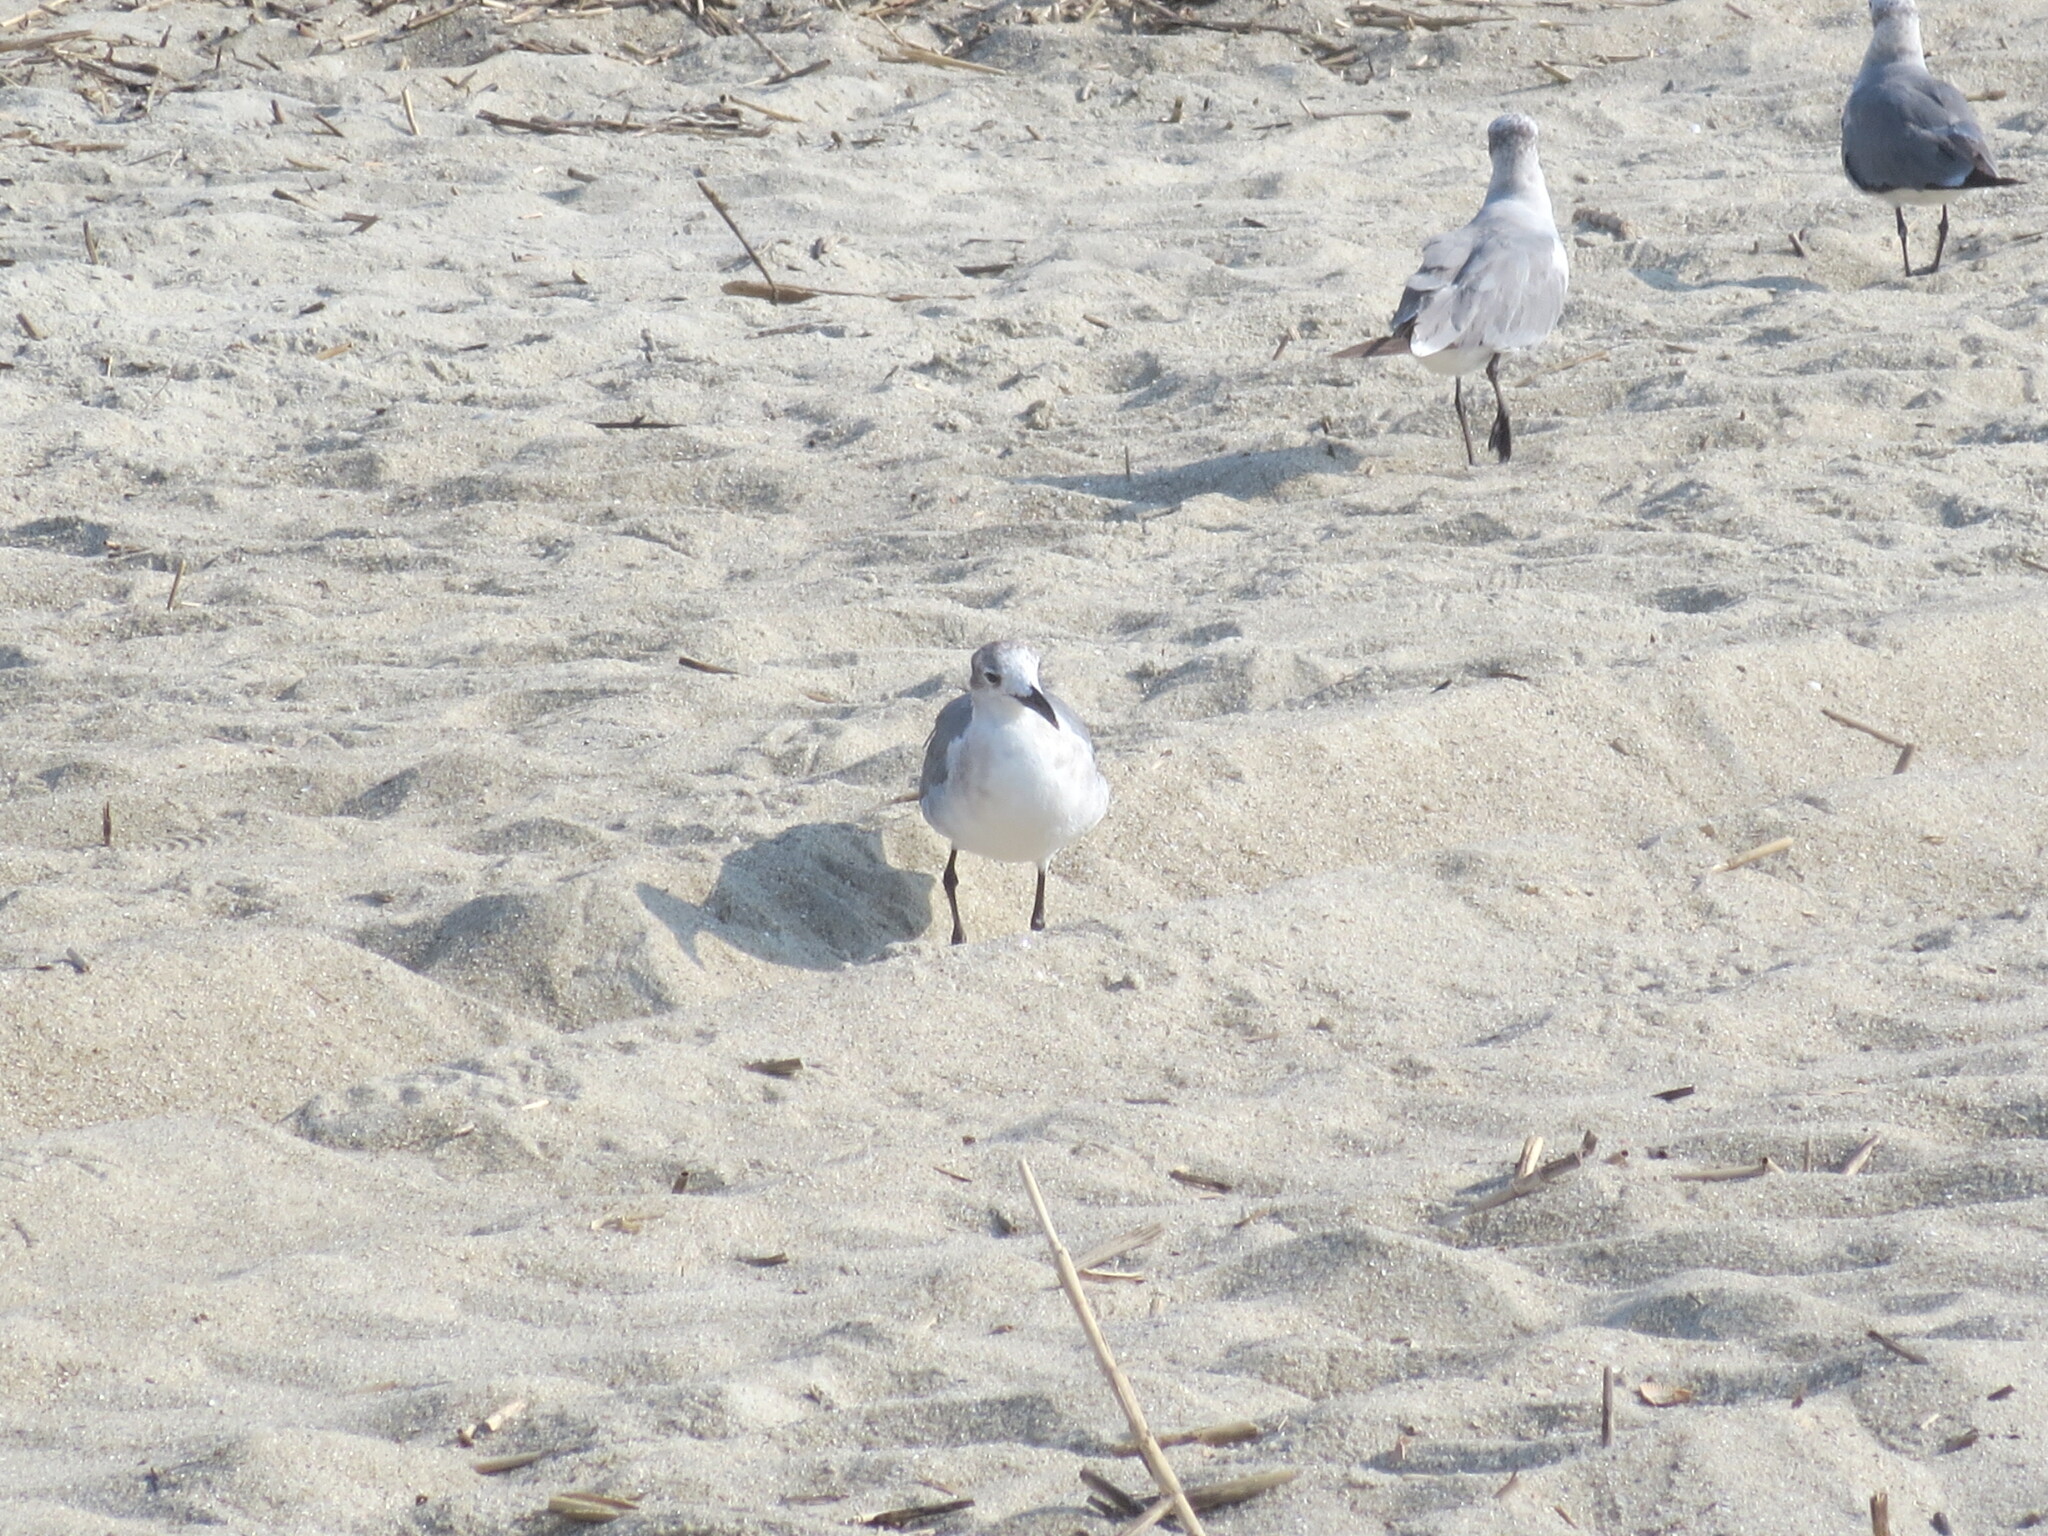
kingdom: Animalia
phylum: Chordata
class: Aves
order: Charadriiformes
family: Laridae
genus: Leucophaeus
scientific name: Leucophaeus atricilla
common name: Laughing gull
